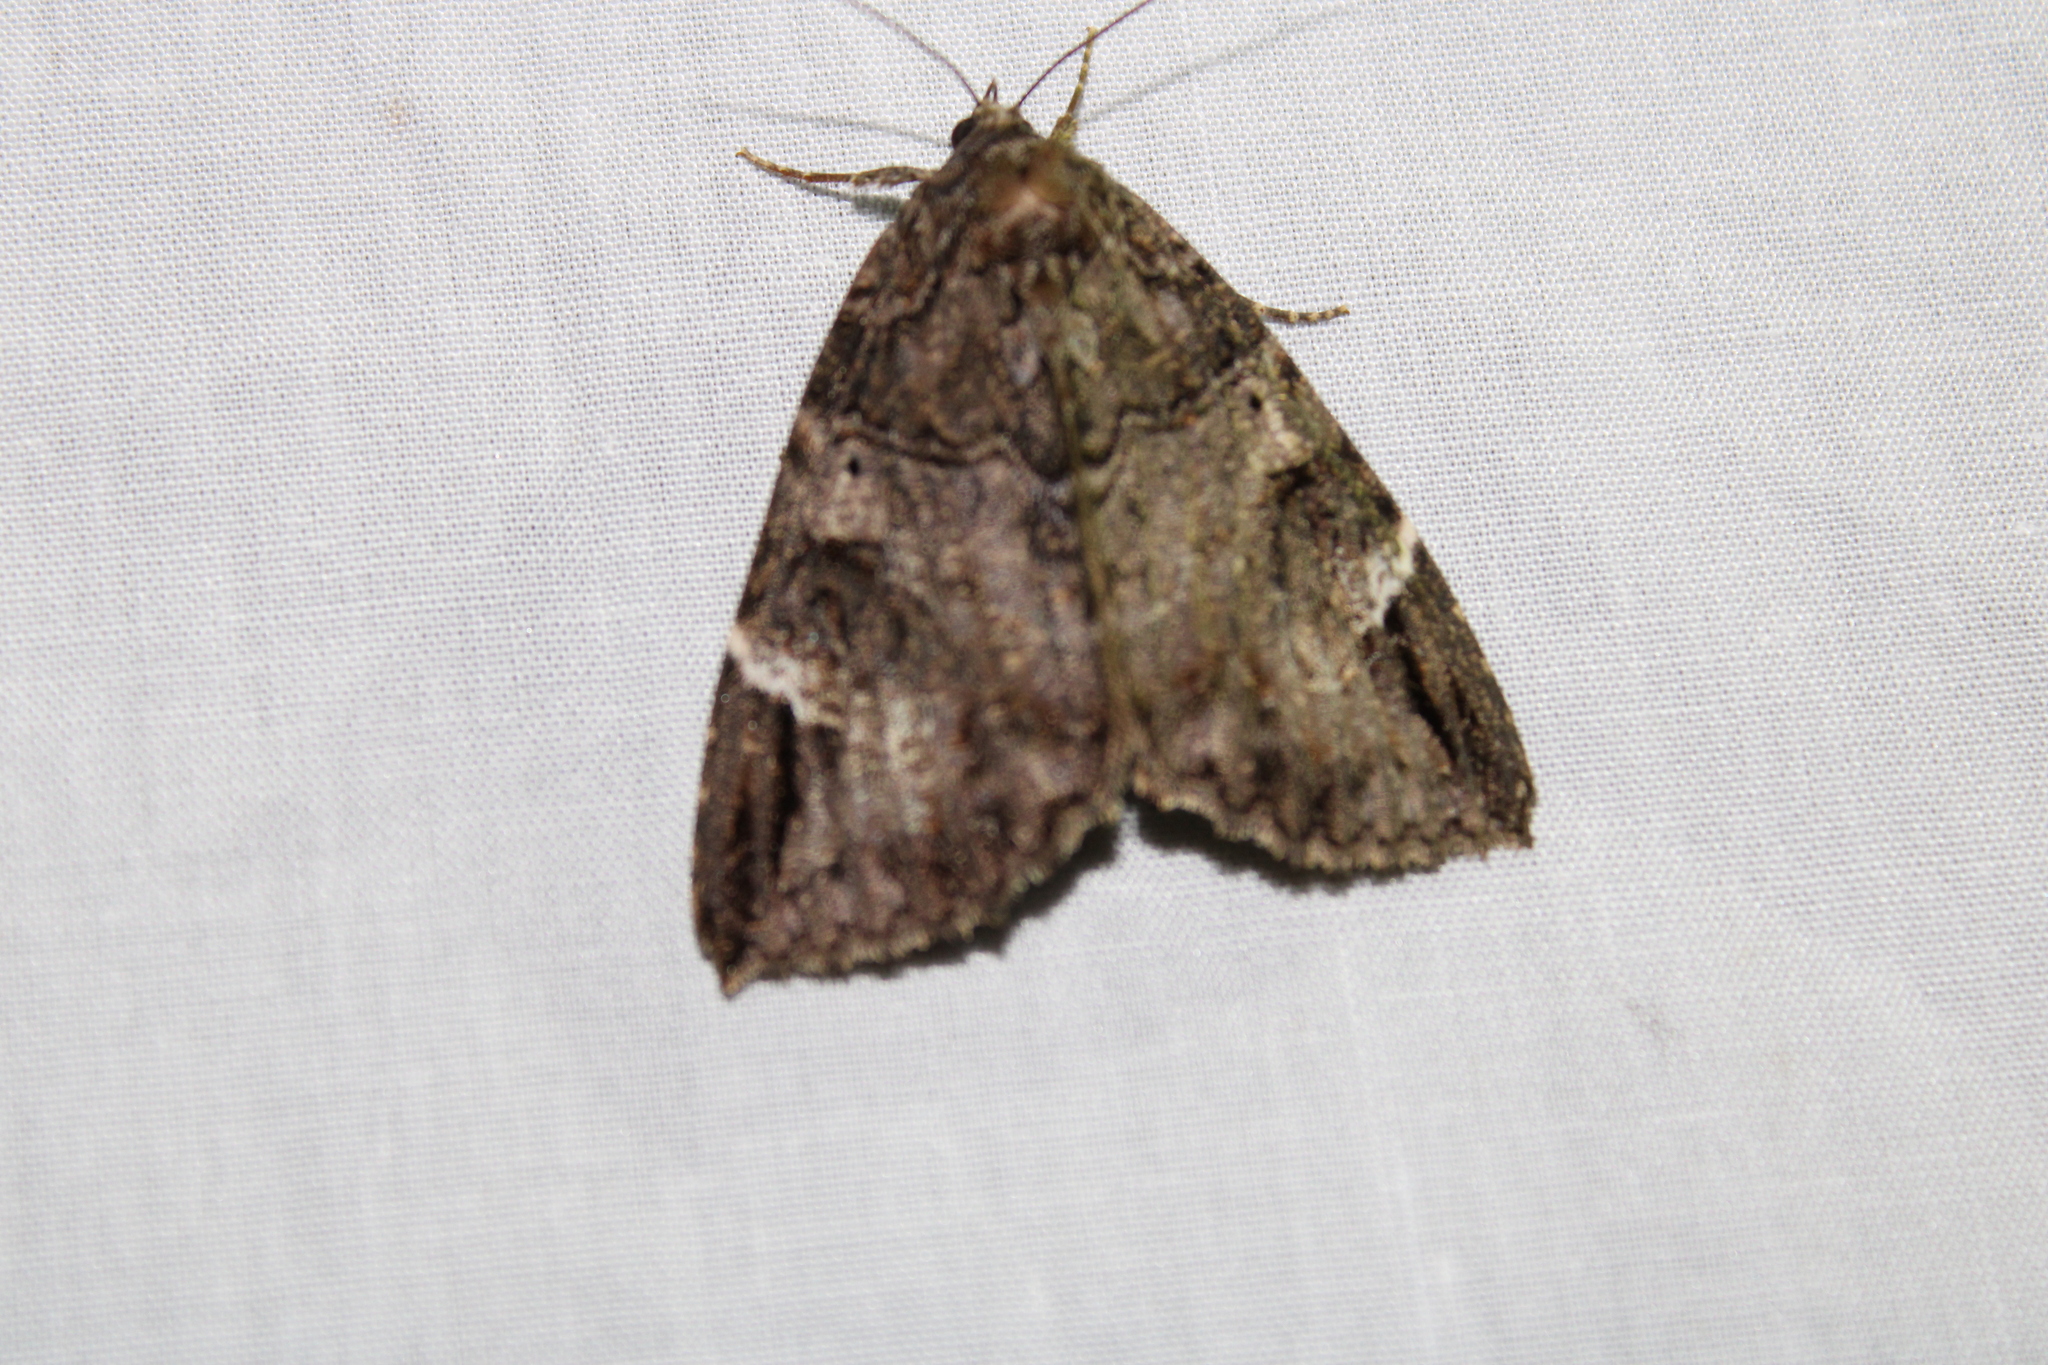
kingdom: Animalia
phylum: Arthropoda
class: Insecta
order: Lepidoptera
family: Erebidae
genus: Euparthenos
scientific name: Euparthenos nubilis
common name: Locust underwing
